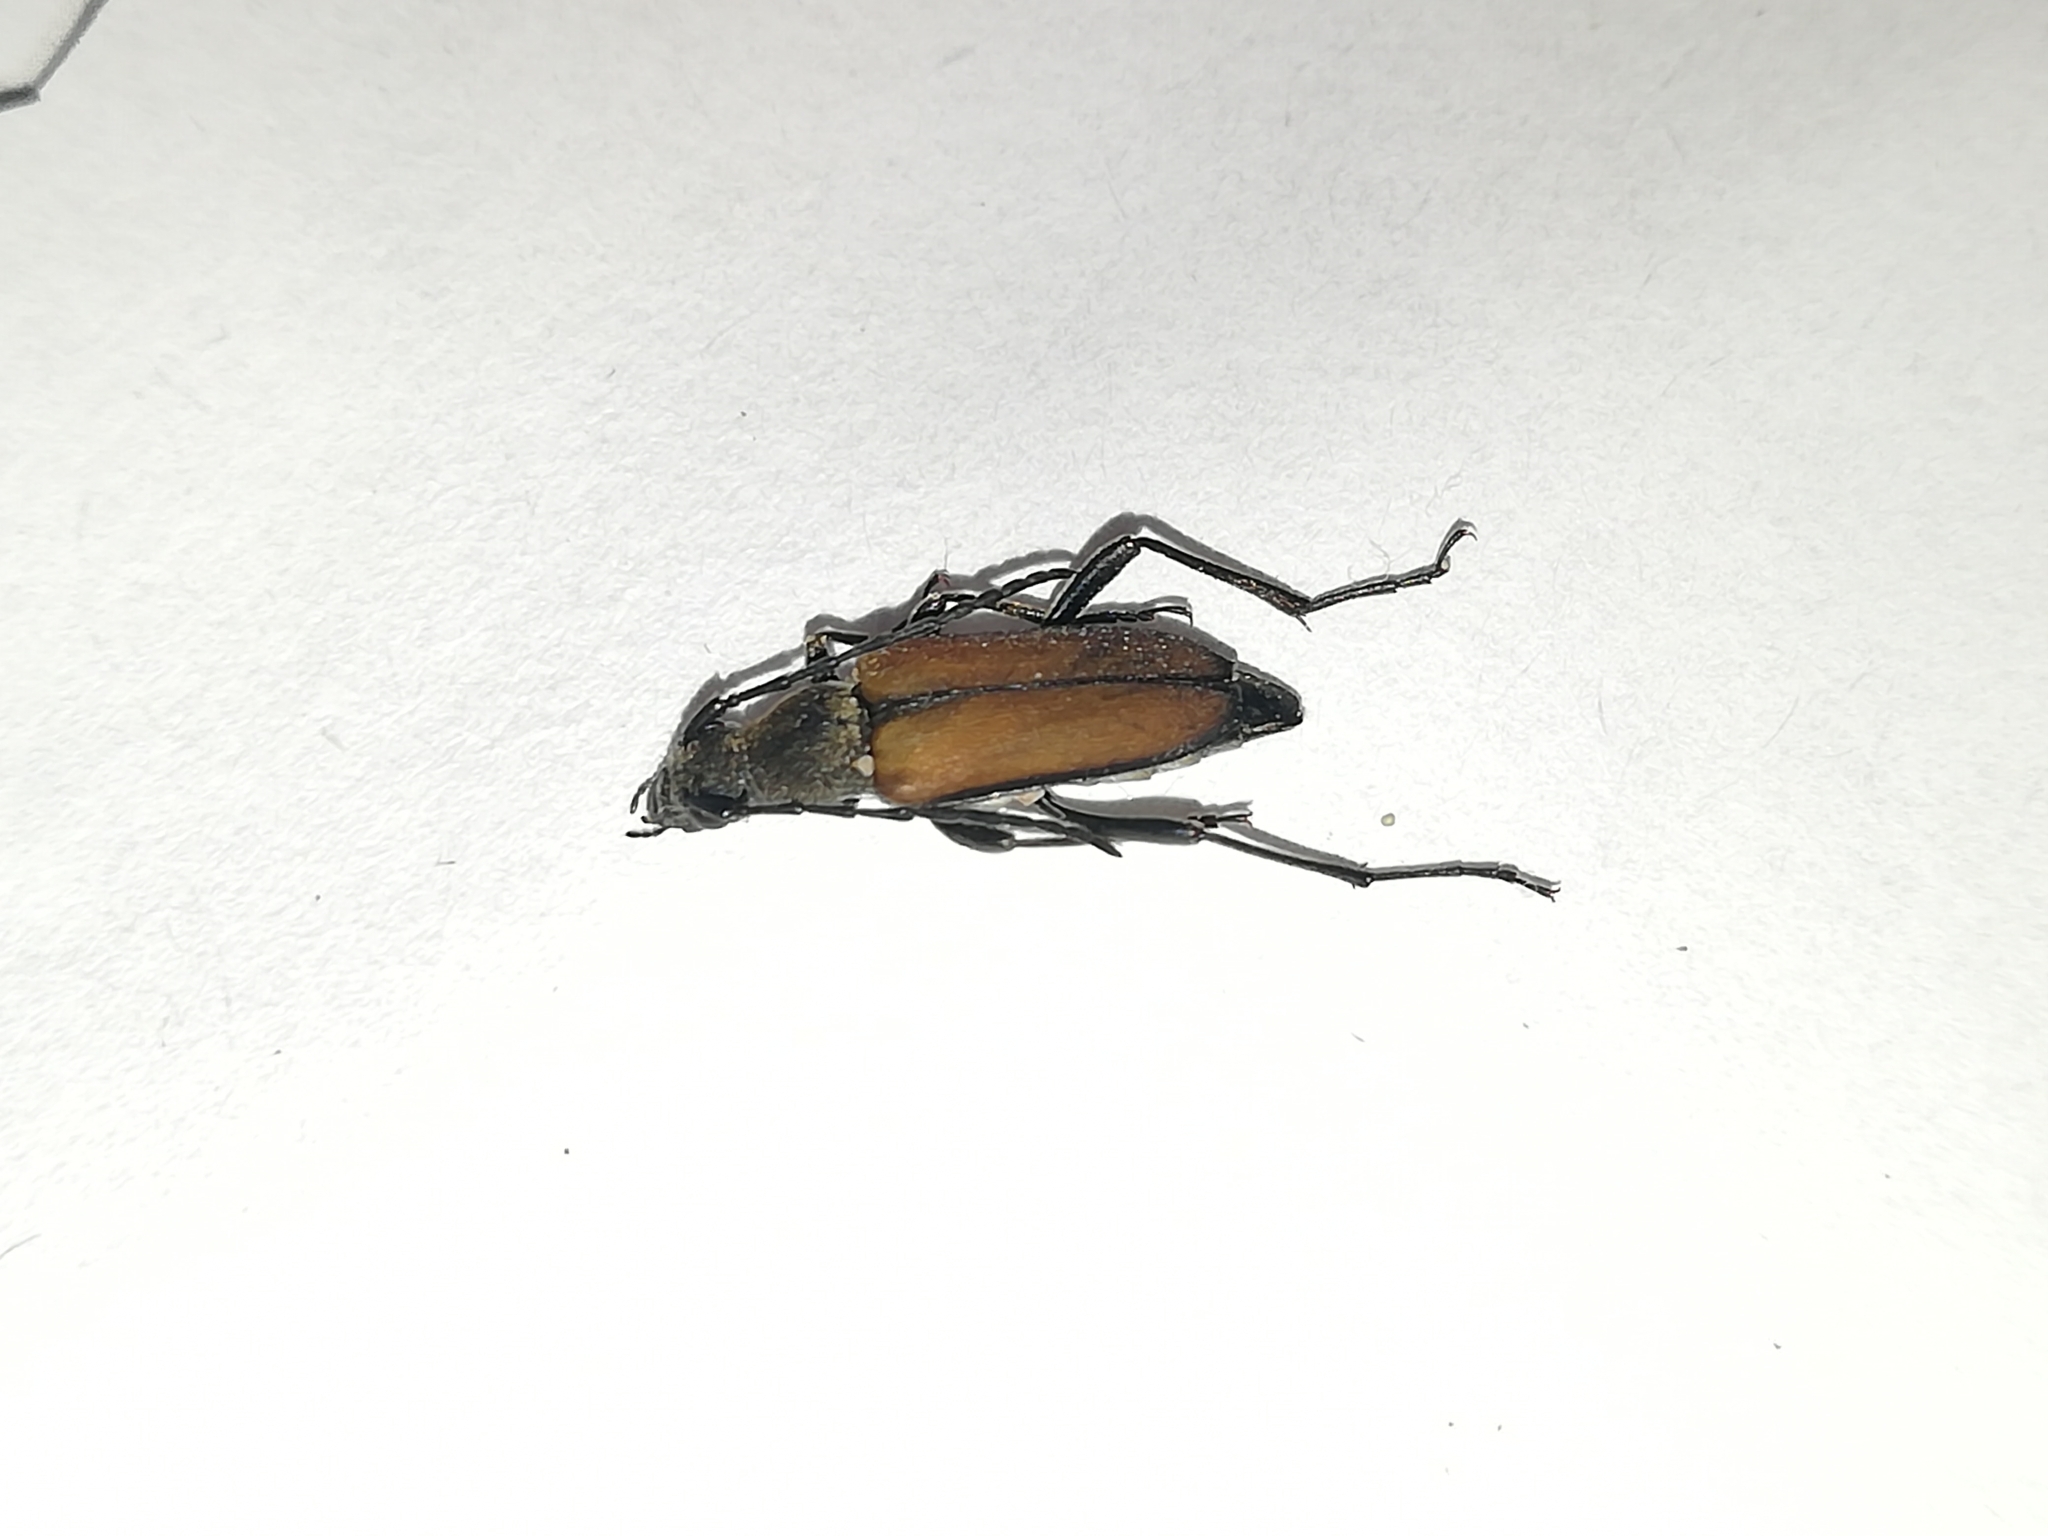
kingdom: Animalia
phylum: Arthropoda
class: Insecta
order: Coleoptera
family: Cerambycidae
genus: Anastrangalia
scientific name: Anastrangalia reyi
